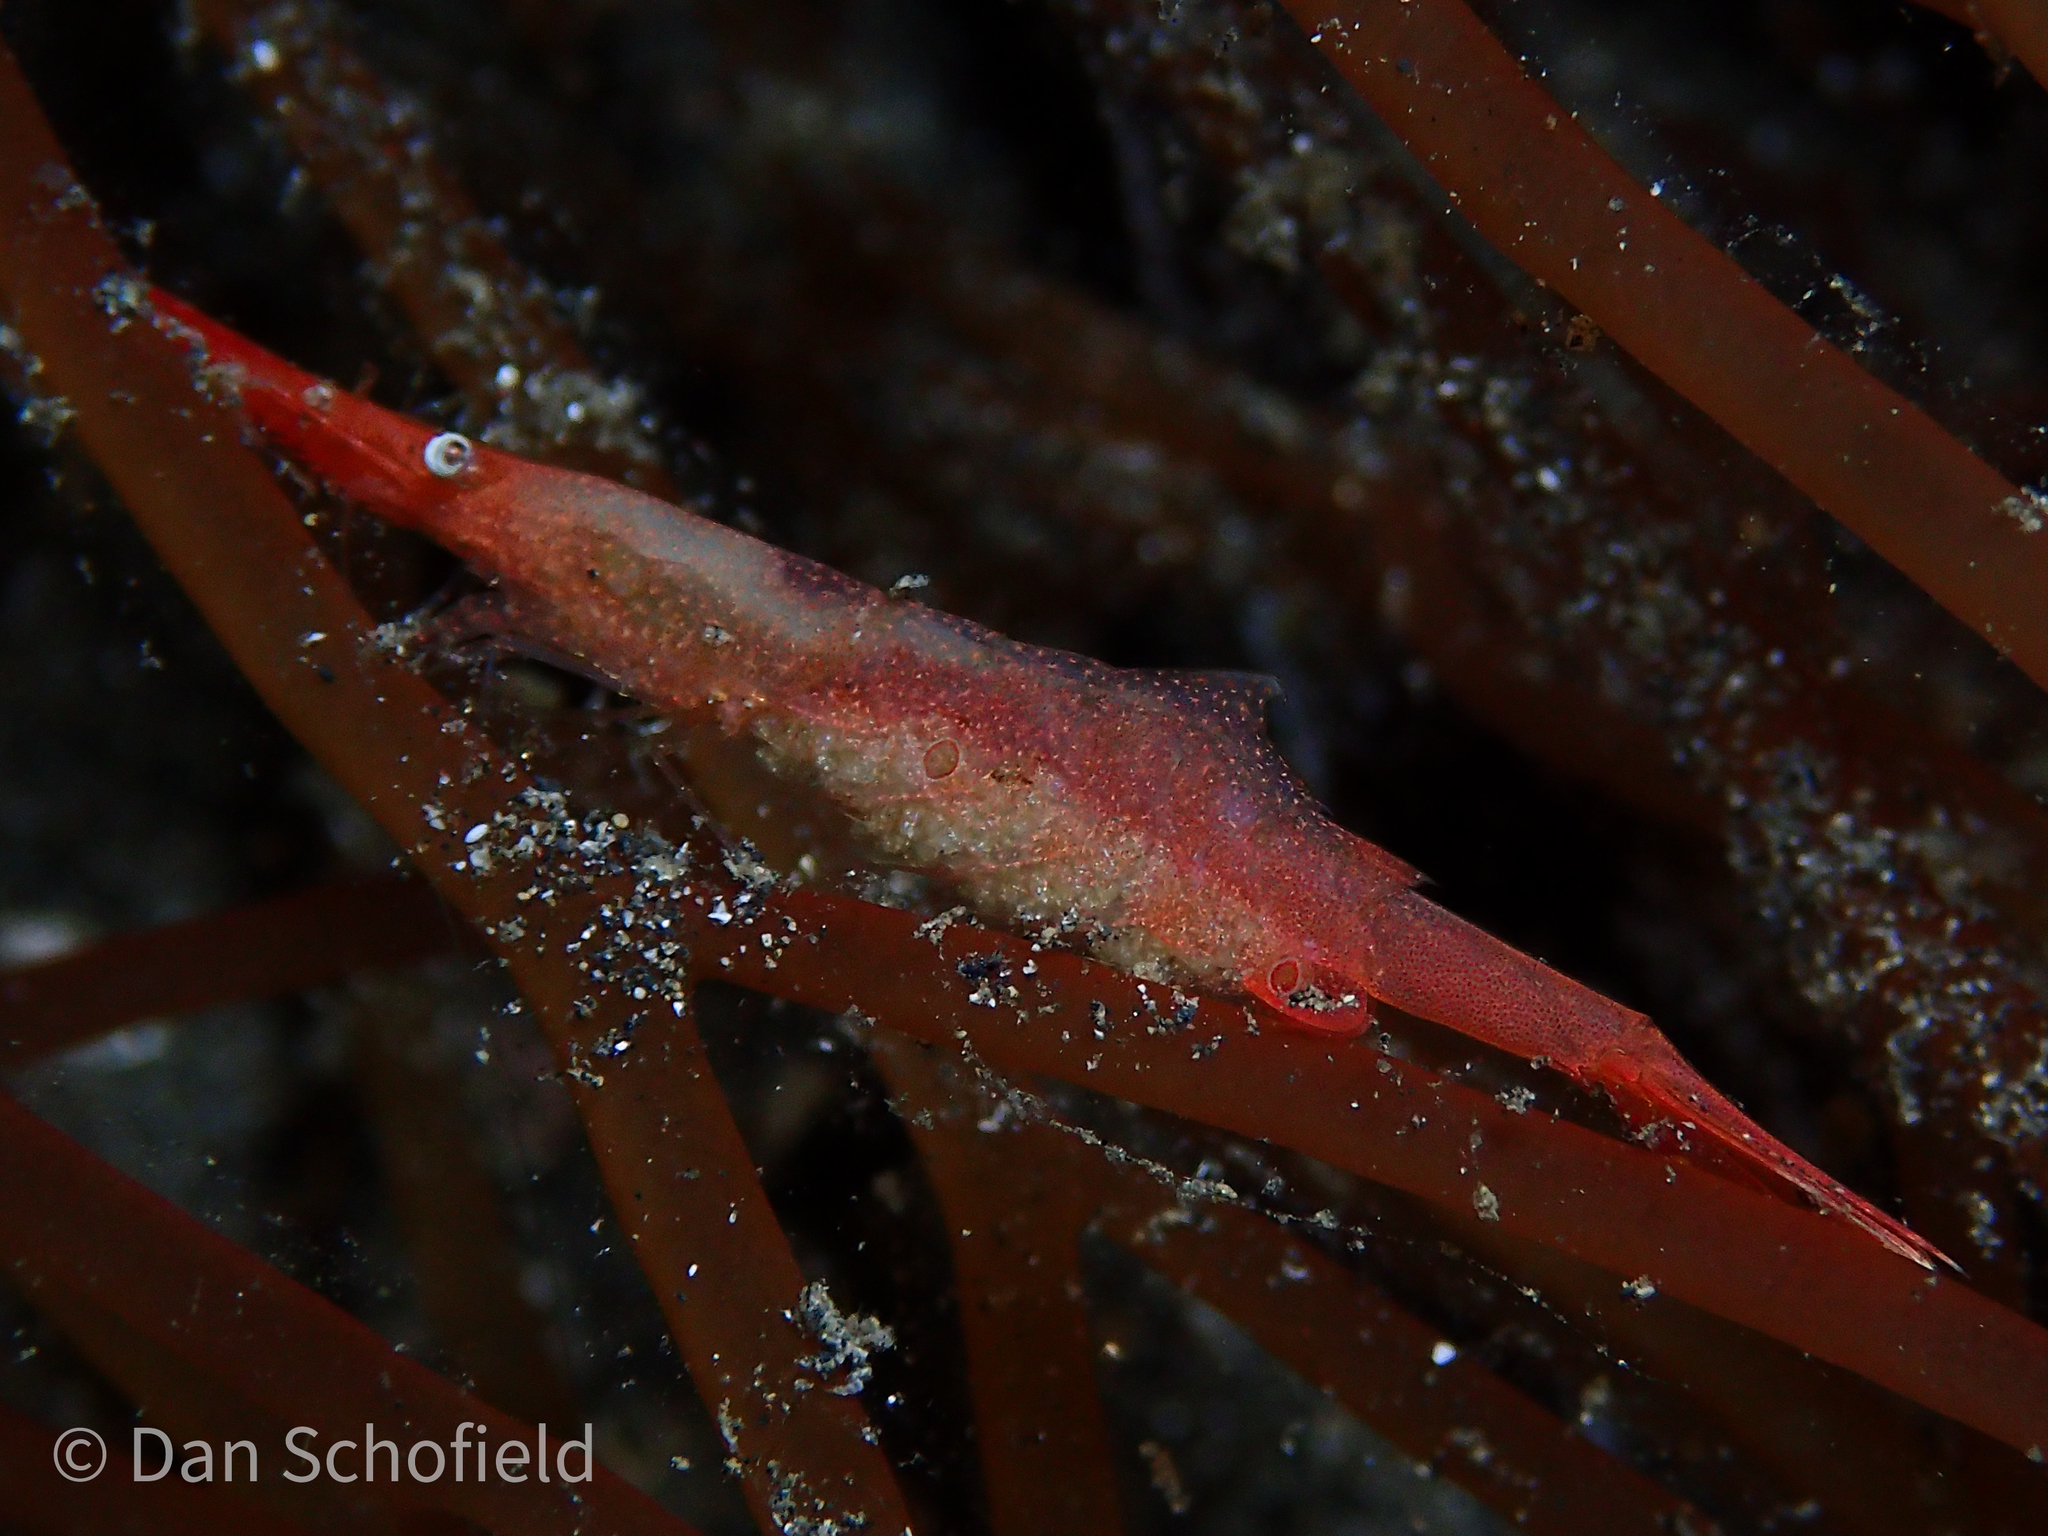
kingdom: Animalia
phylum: Arthropoda
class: Malacostraca
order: Decapoda
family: Hippolytidae
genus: Tozeuma
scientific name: Tozeuma lanceolatum
